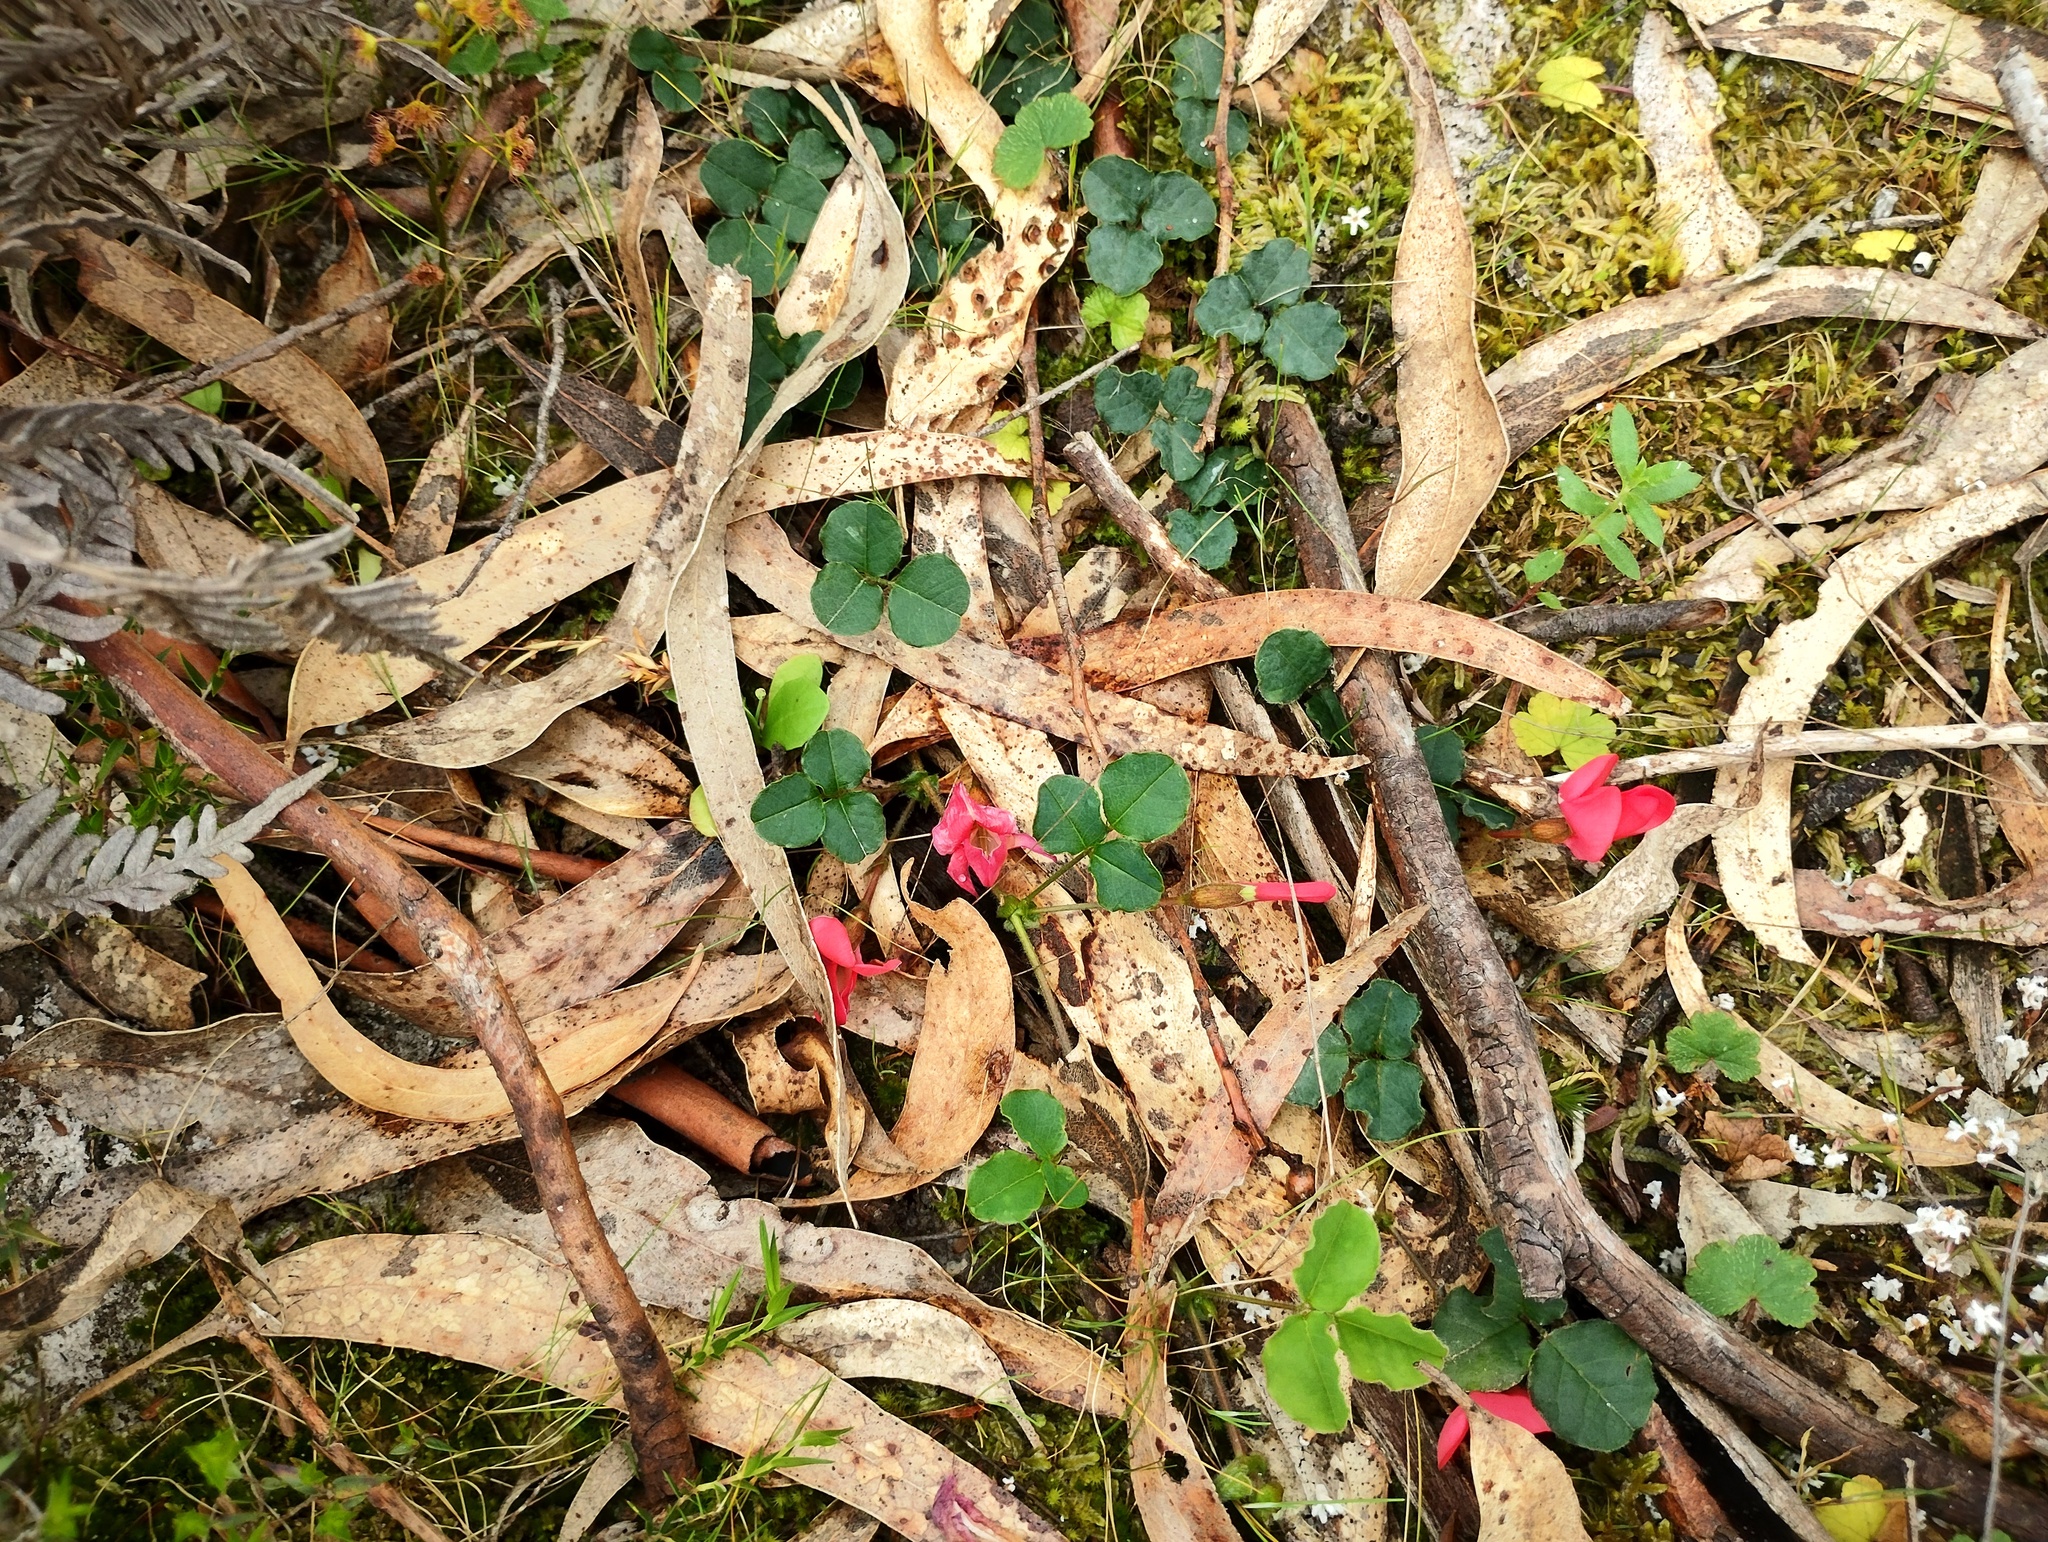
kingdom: Plantae
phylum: Tracheophyta
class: Magnoliopsida
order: Fabales
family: Fabaceae
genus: Kennedia
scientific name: Kennedia prostrata
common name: Running-postman
